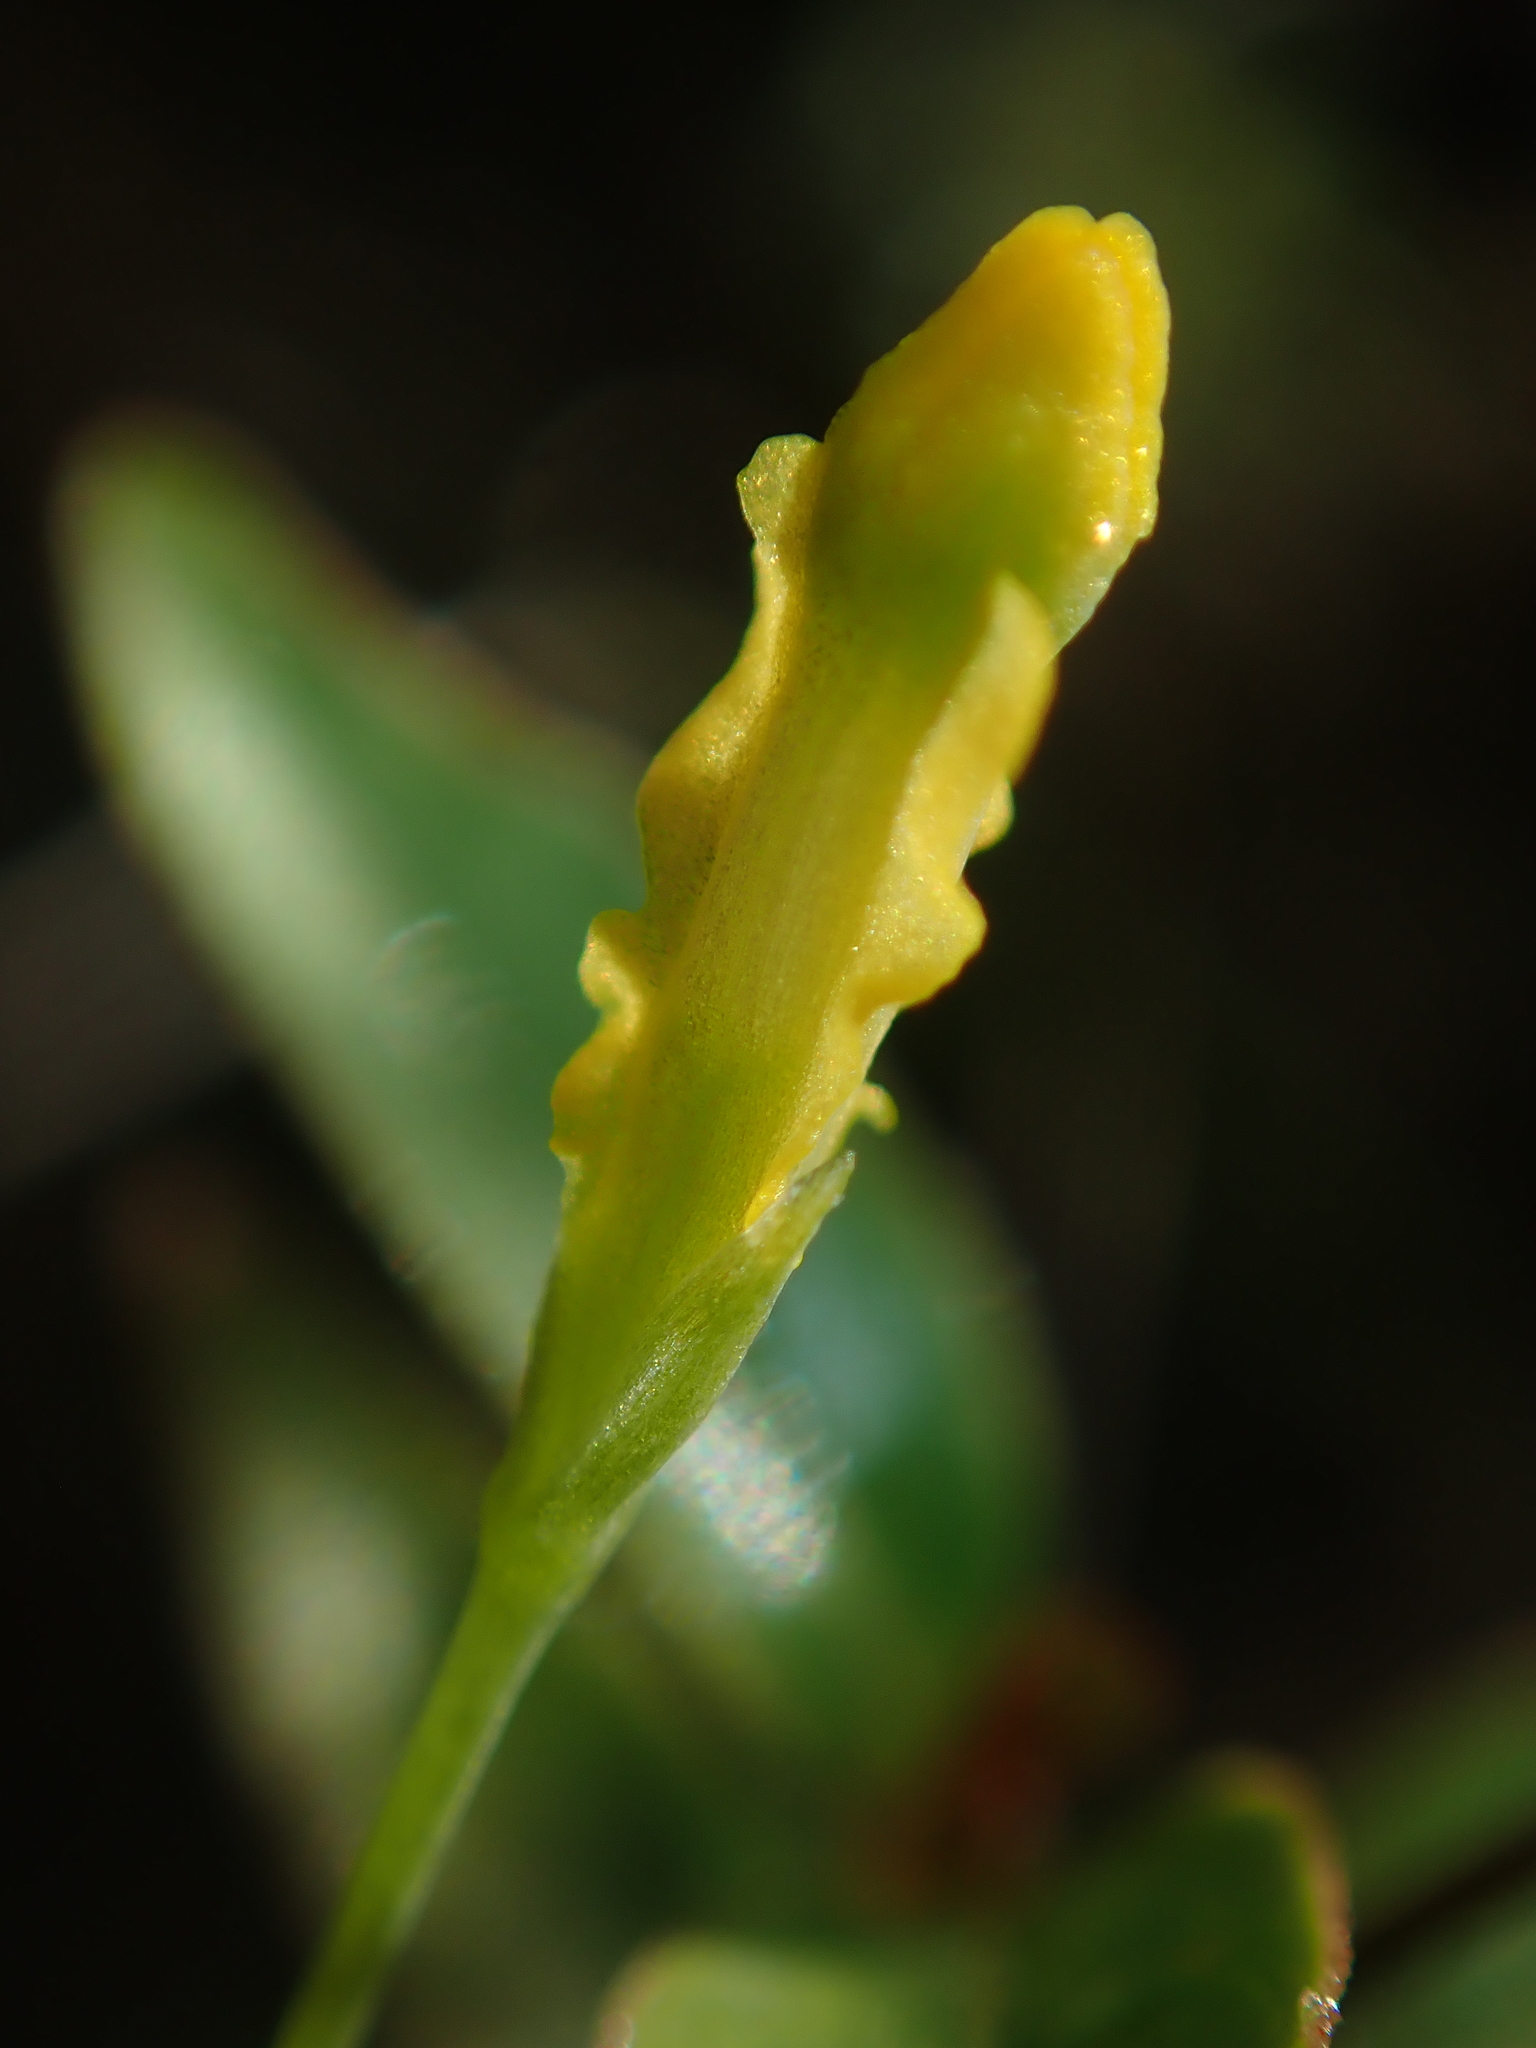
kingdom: Plantae
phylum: Tracheophyta
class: Liliopsida
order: Dioscoreales
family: Burmanniaceae
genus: Burmannia
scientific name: Burmannia flava
